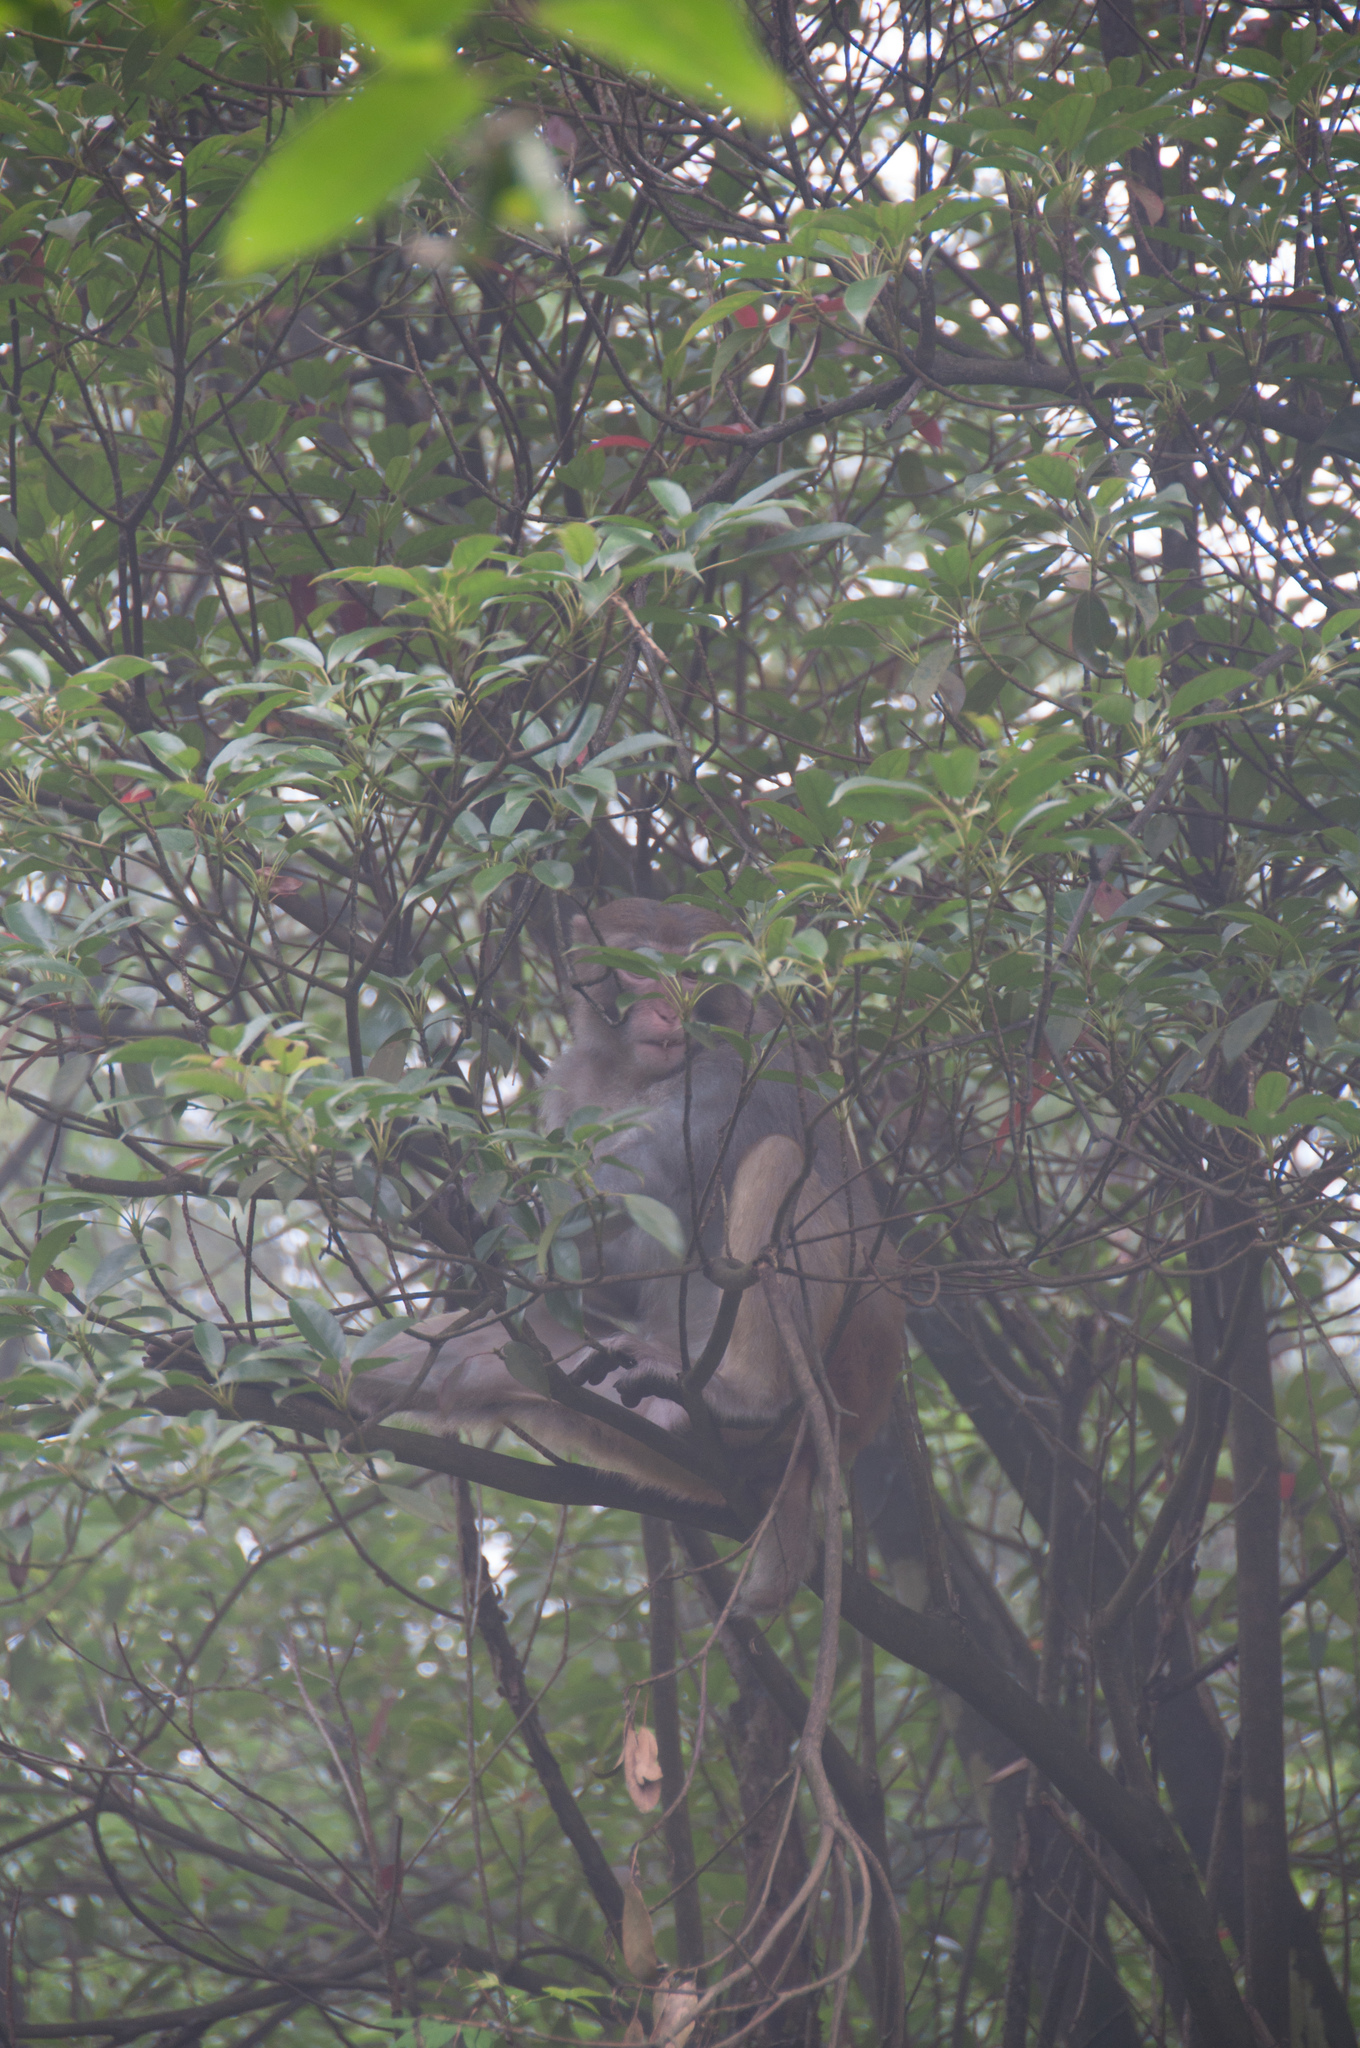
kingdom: Animalia
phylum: Chordata
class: Mammalia
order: Primates
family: Cercopithecidae
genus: Macaca
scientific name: Macaca mulatta
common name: Rhesus monkey
